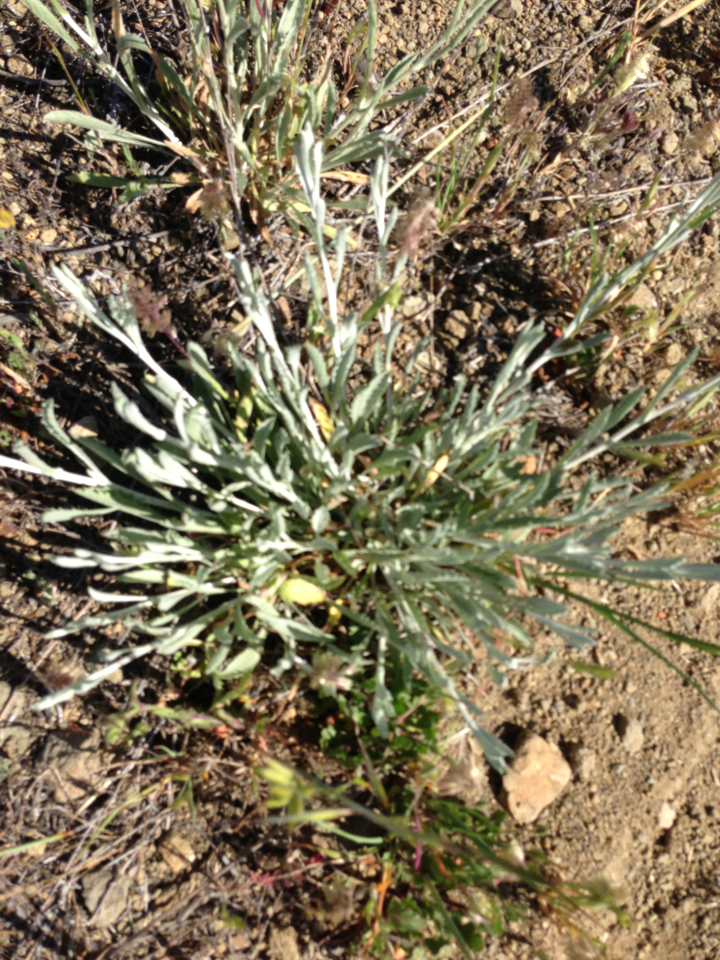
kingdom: Plantae
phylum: Tracheophyta
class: Magnoliopsida
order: Asterales
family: Asteraceae
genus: Corethrogyne
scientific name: Corethrogyne filaginifolia
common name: Sand-aster
